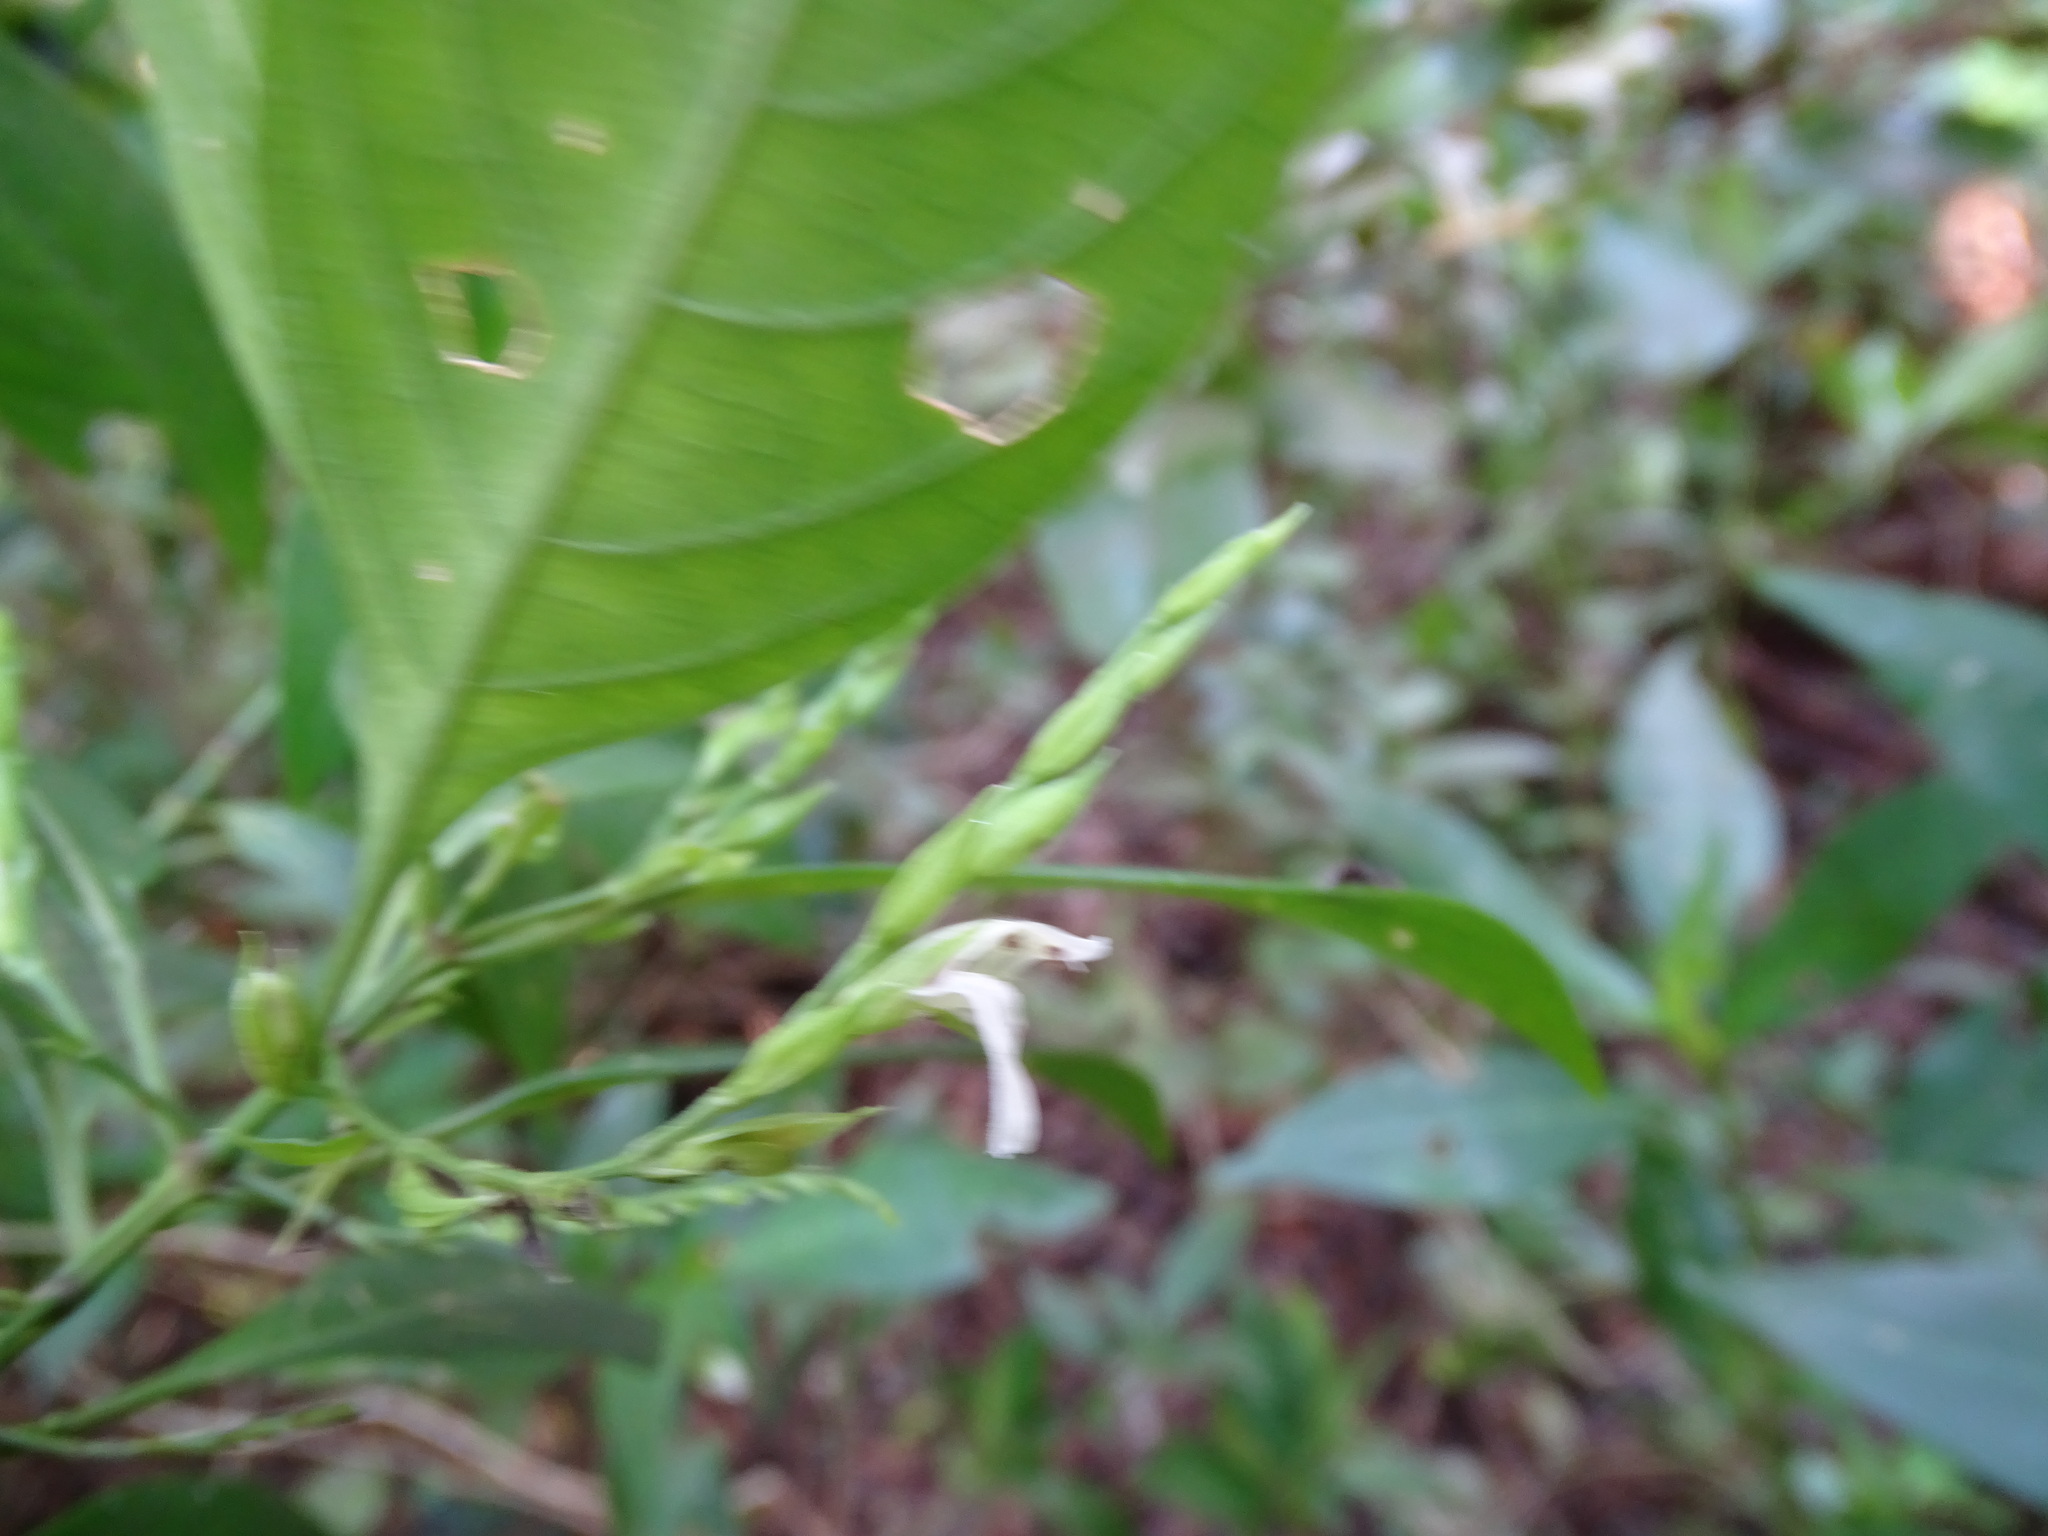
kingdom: Plantae
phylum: Tracheophyta
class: Magnoliopsida
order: Lamiales
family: Acanthaceae
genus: Justicia
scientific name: Justicia campechiana
